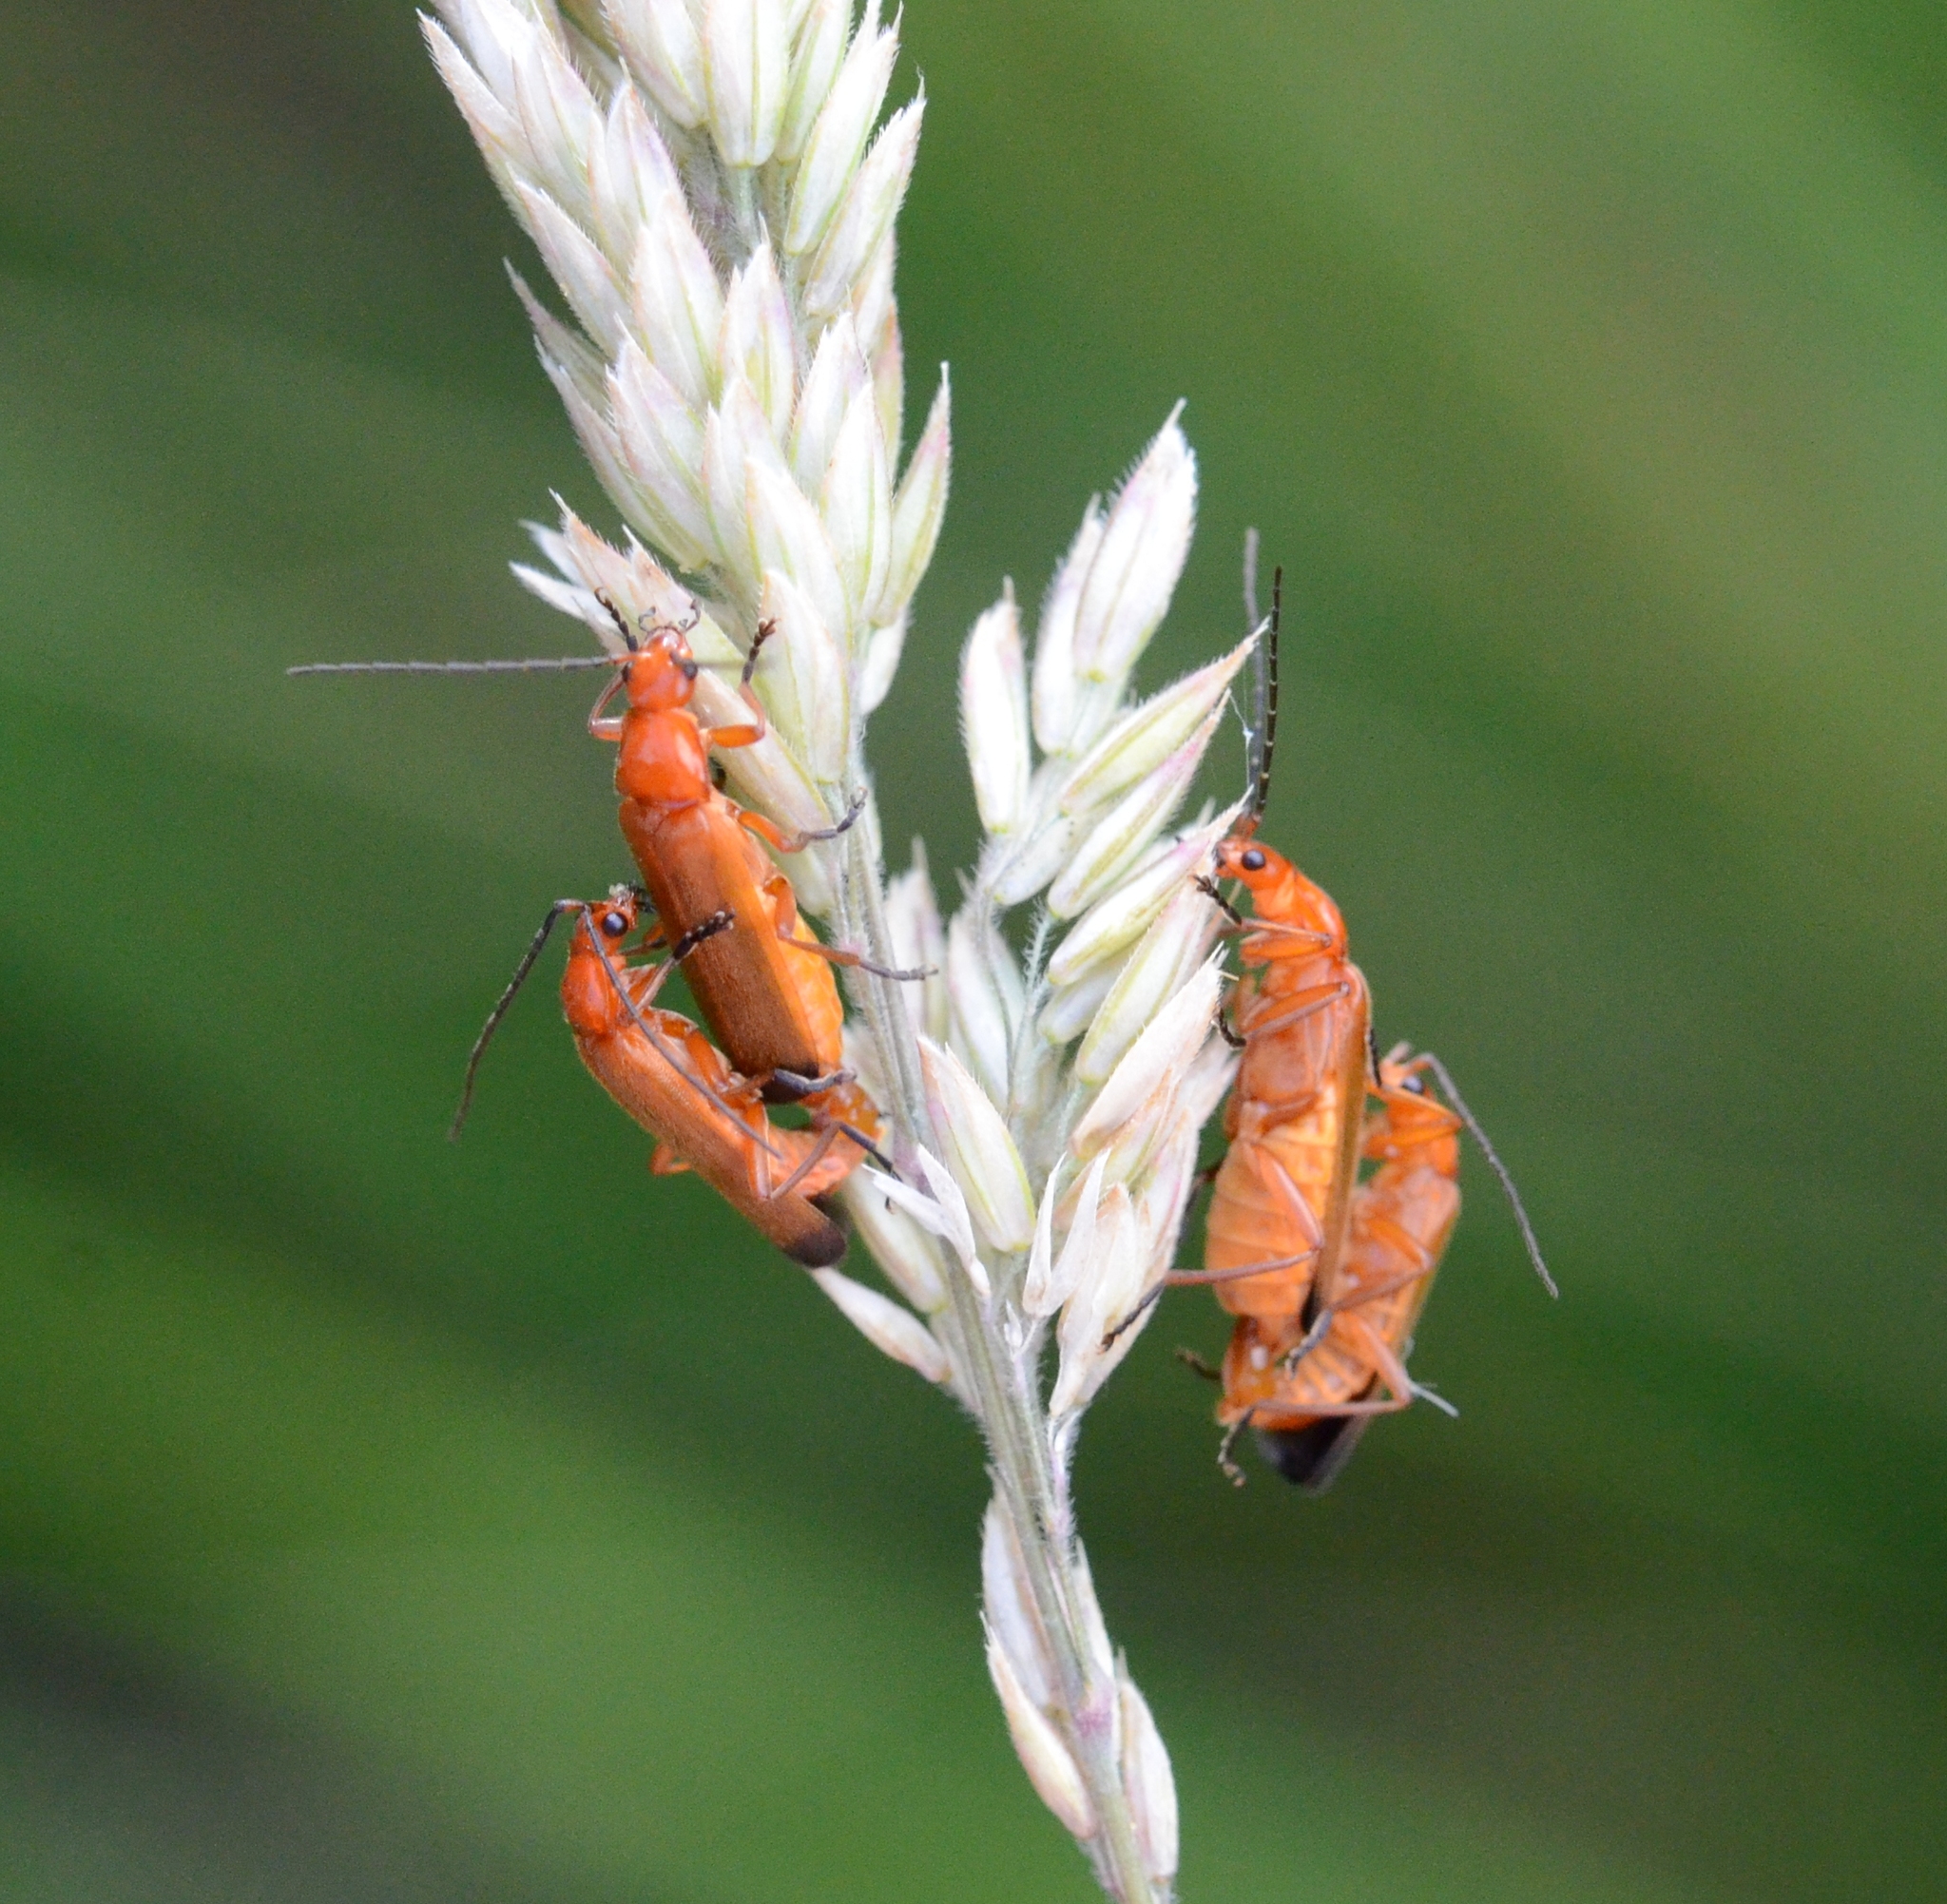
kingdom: Animalia
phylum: Arthropoda
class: Insecta
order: Coleoptera
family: Cantharidae
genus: Rhagonycha
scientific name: Rhagonycha fulva
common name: Common red soldier beetle
